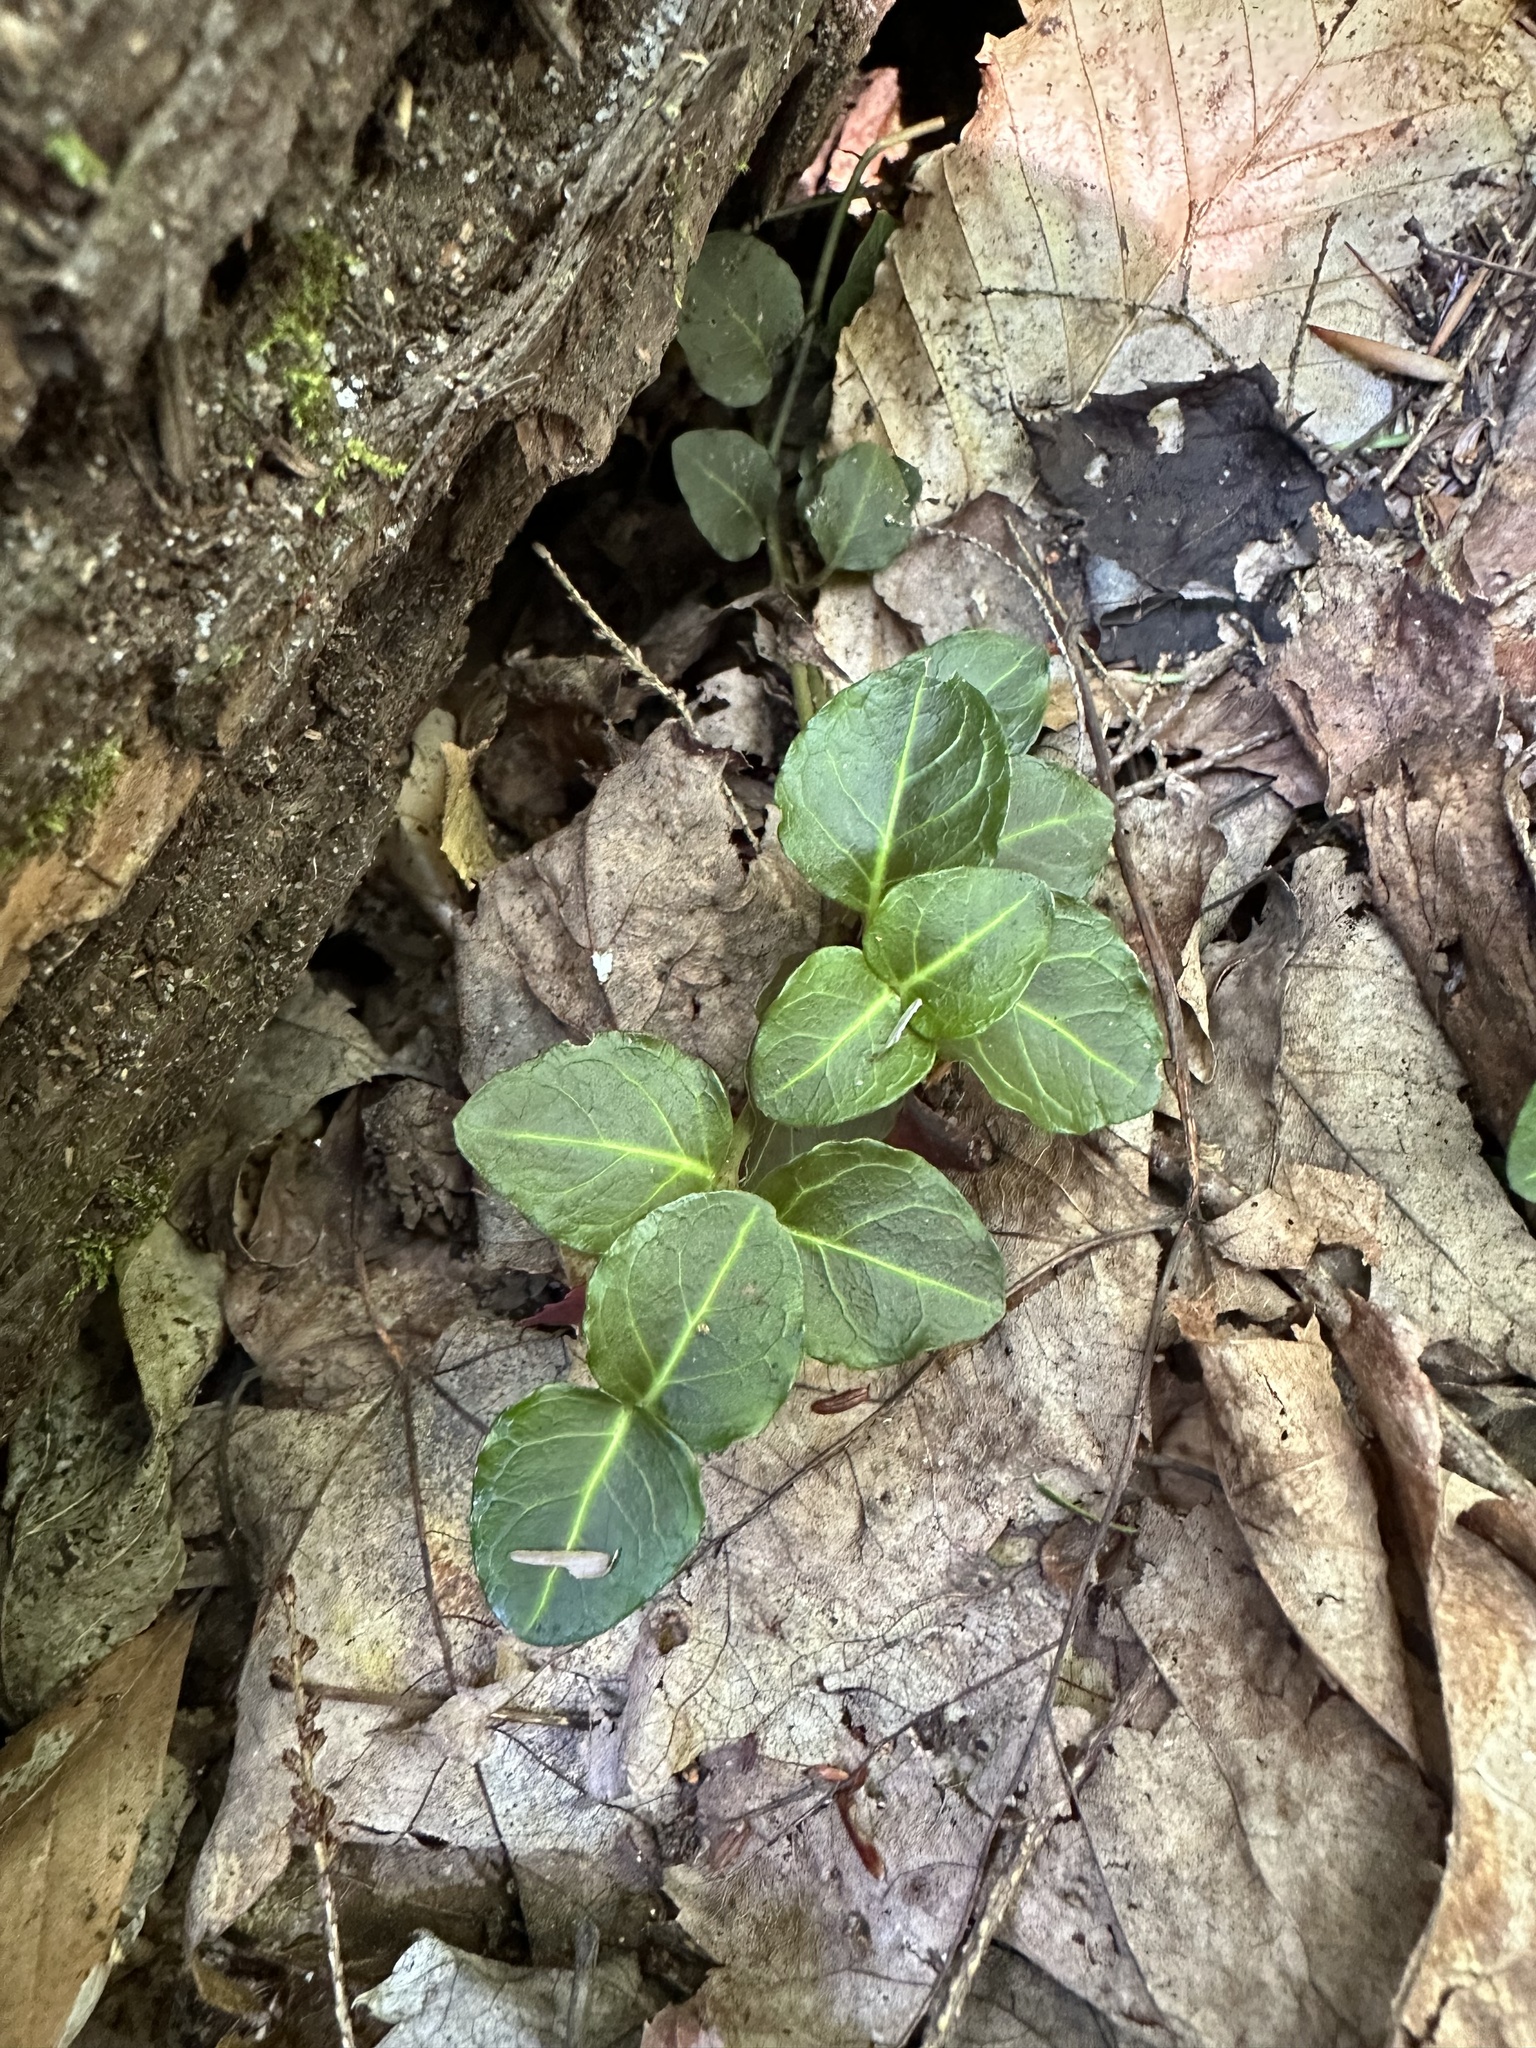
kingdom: Plantae
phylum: Tracheophyta
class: Magnoliopsida
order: Gentianales
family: Rubiaceae
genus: Mitchella
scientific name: Mitchella repens
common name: Partridge-berry
